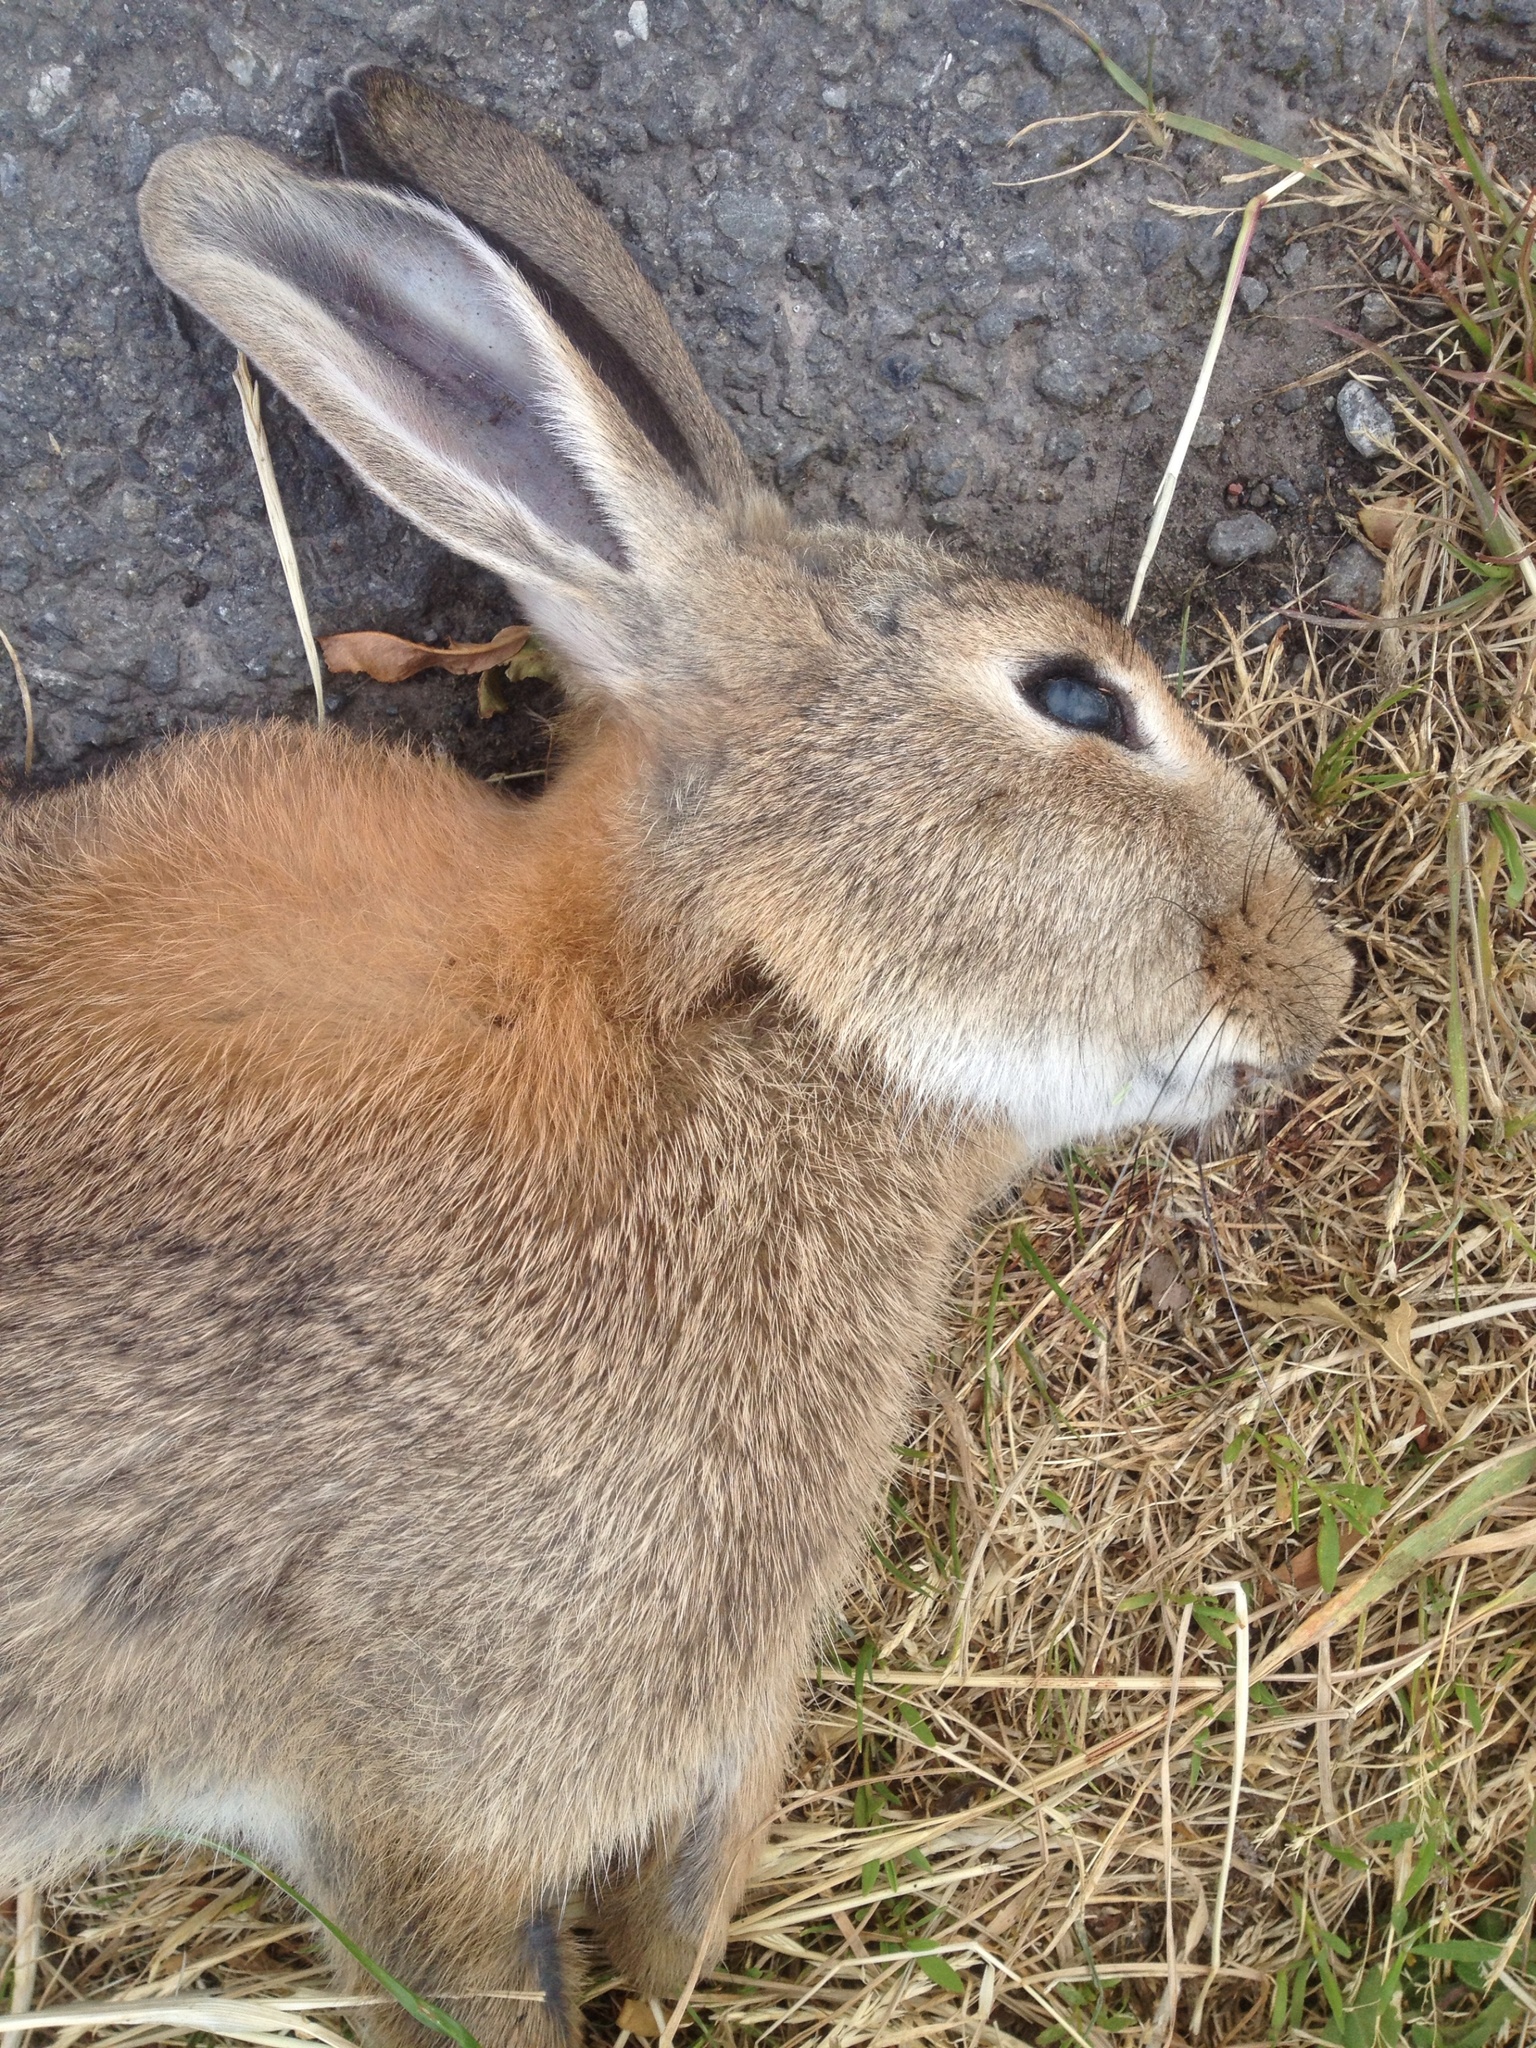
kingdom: Animalia
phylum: Chordata
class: Mammalia
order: Lagomorpha
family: Leporidae
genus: Oryctolagus
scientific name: Oryctolagus cuniculus
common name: European rabbit
